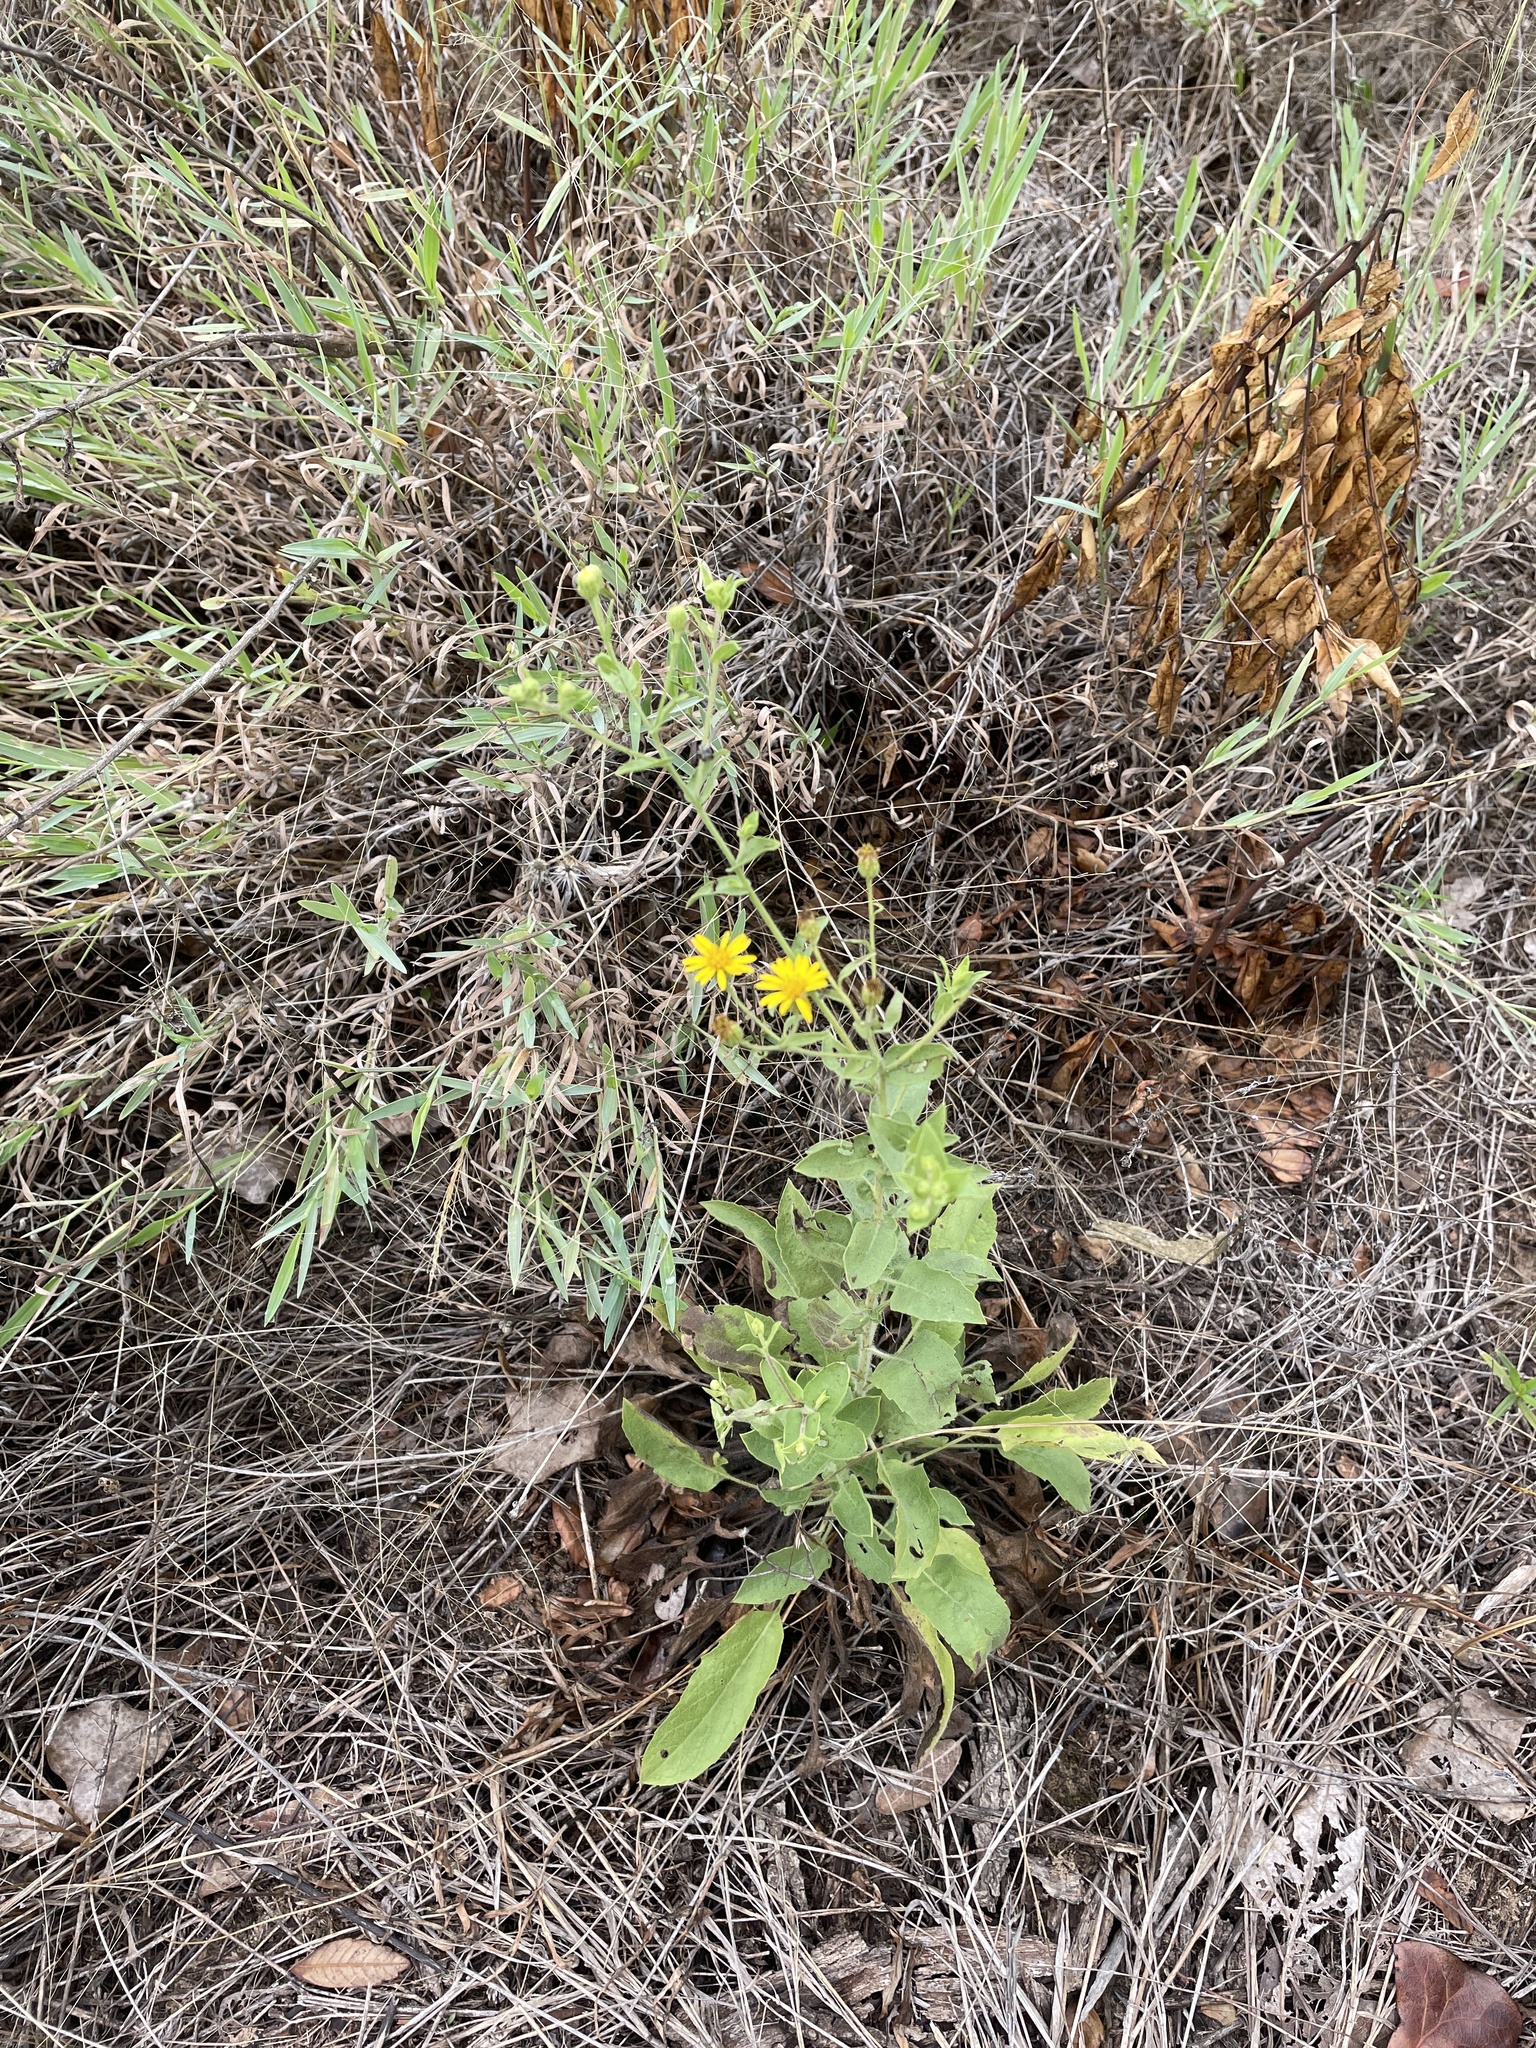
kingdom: Plantae
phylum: Tracheophyta
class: Magnoliopsida
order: Asterales
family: Asteraceae
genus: Heterotheca
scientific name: Heterotheca subaxillaris
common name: Camphorweed
